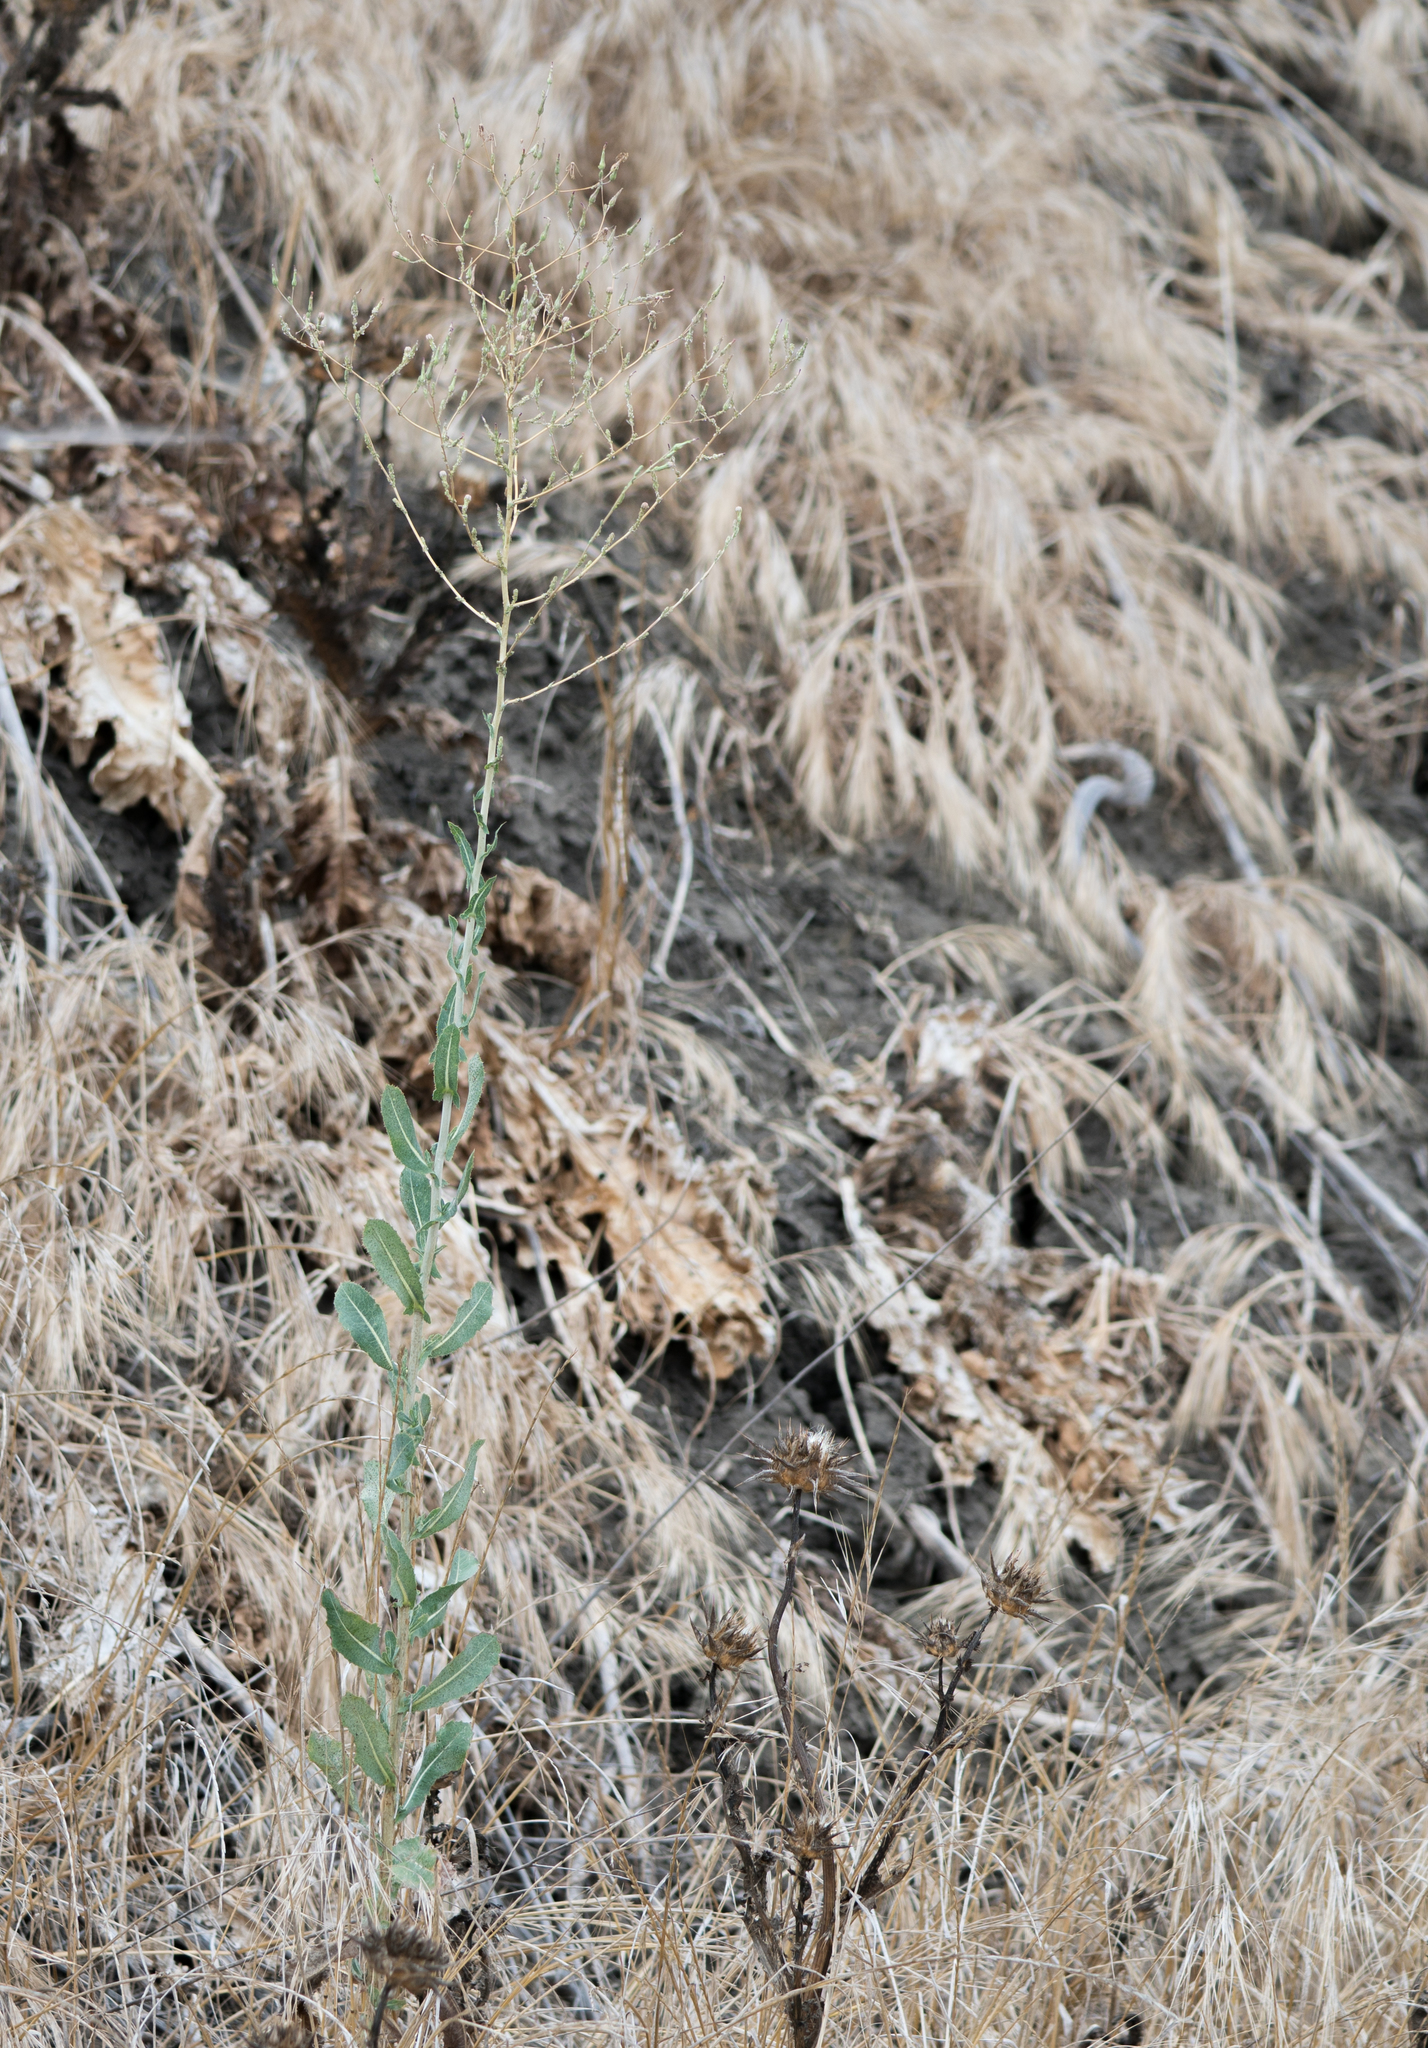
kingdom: Plantae
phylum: Tracheophyta
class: Magnoliopsida
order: Asterales
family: Asteraceae
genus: Lactuca
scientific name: Lactuca serriola
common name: Prickly lettuce
